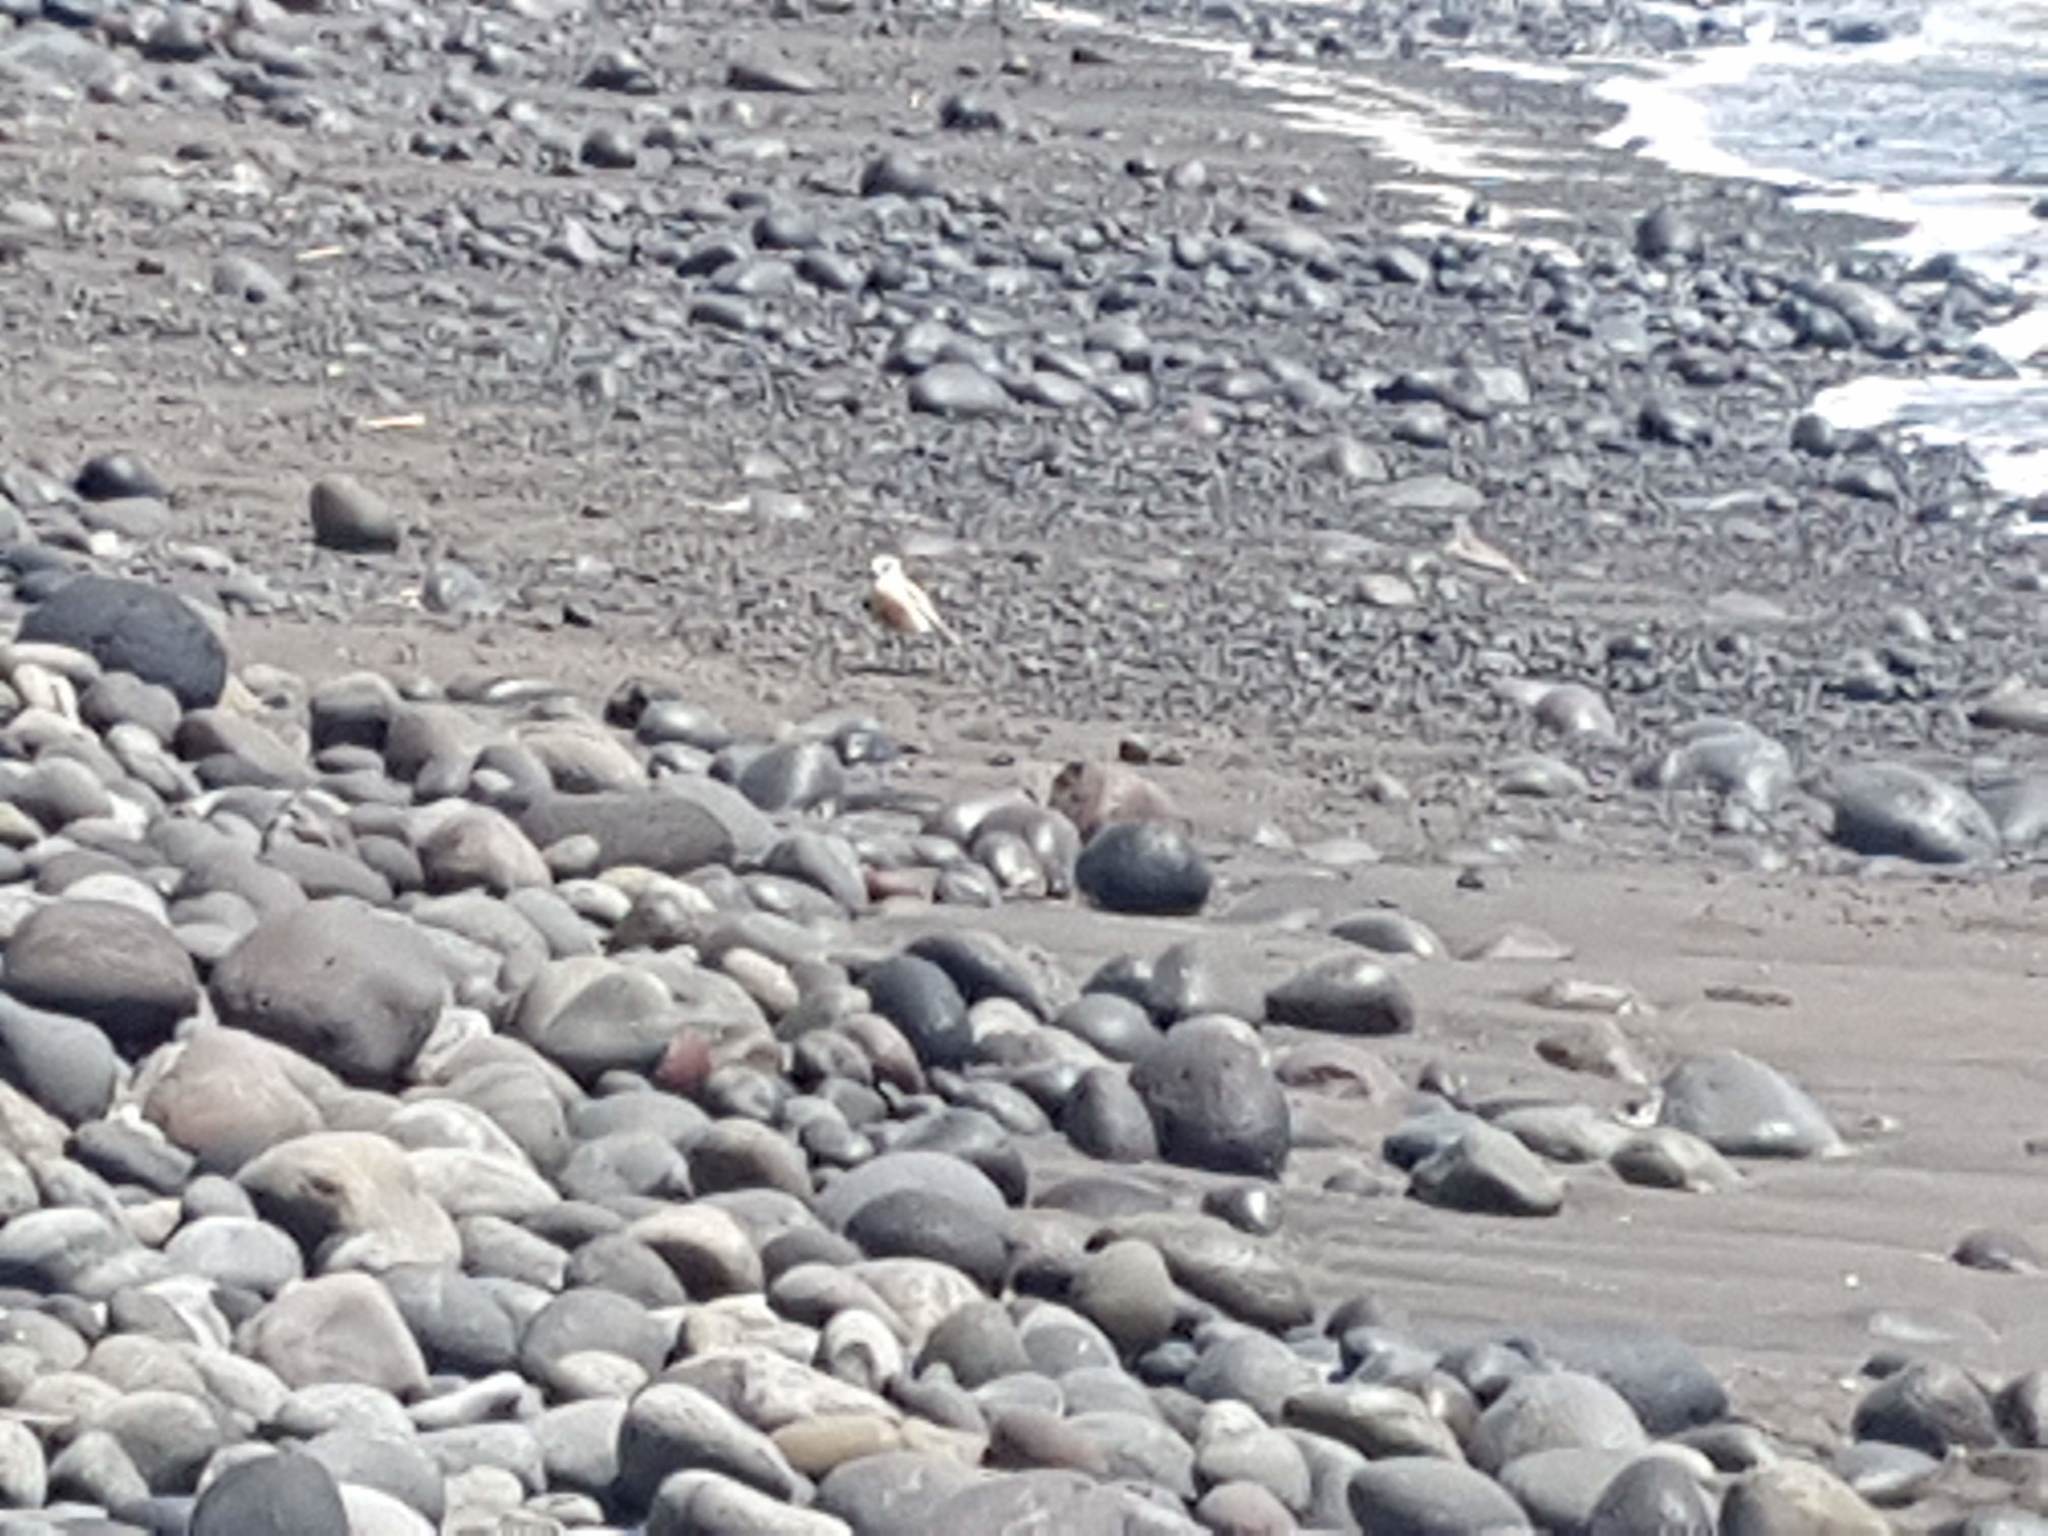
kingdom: Animalia
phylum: Chordata
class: Aves
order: Charadriiformes
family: Charadriidae
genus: Anarhynchus
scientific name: Anarhynchus
